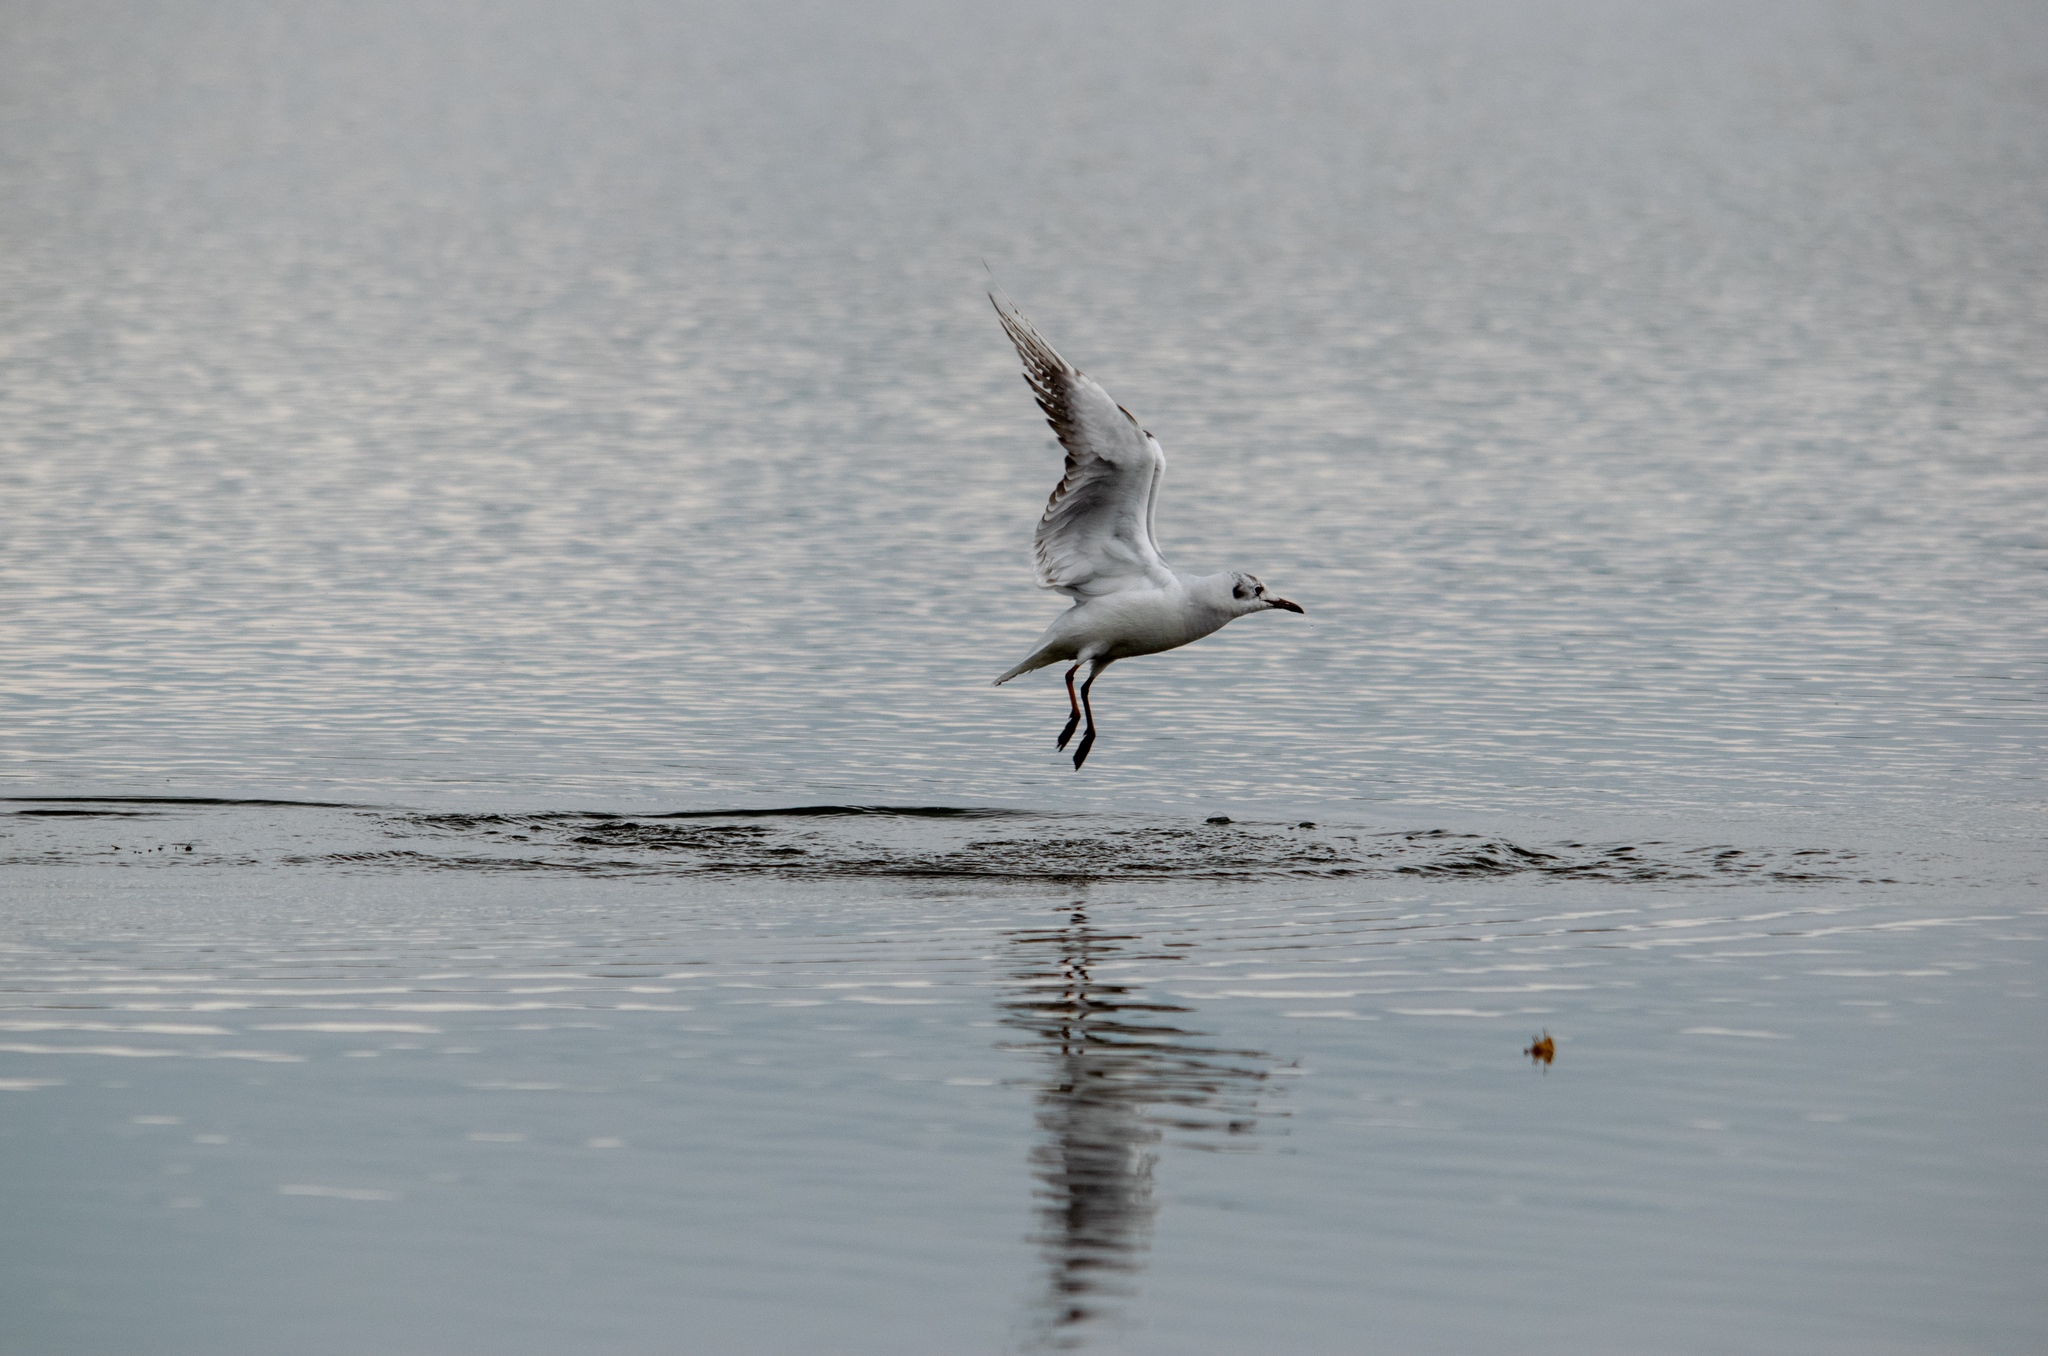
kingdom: Animalia
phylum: Chordata
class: Aves
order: Charadriiformes
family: Laridae
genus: Chroicocephalus
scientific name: Chroicocephalus ridibundus
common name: Black-headed gull
